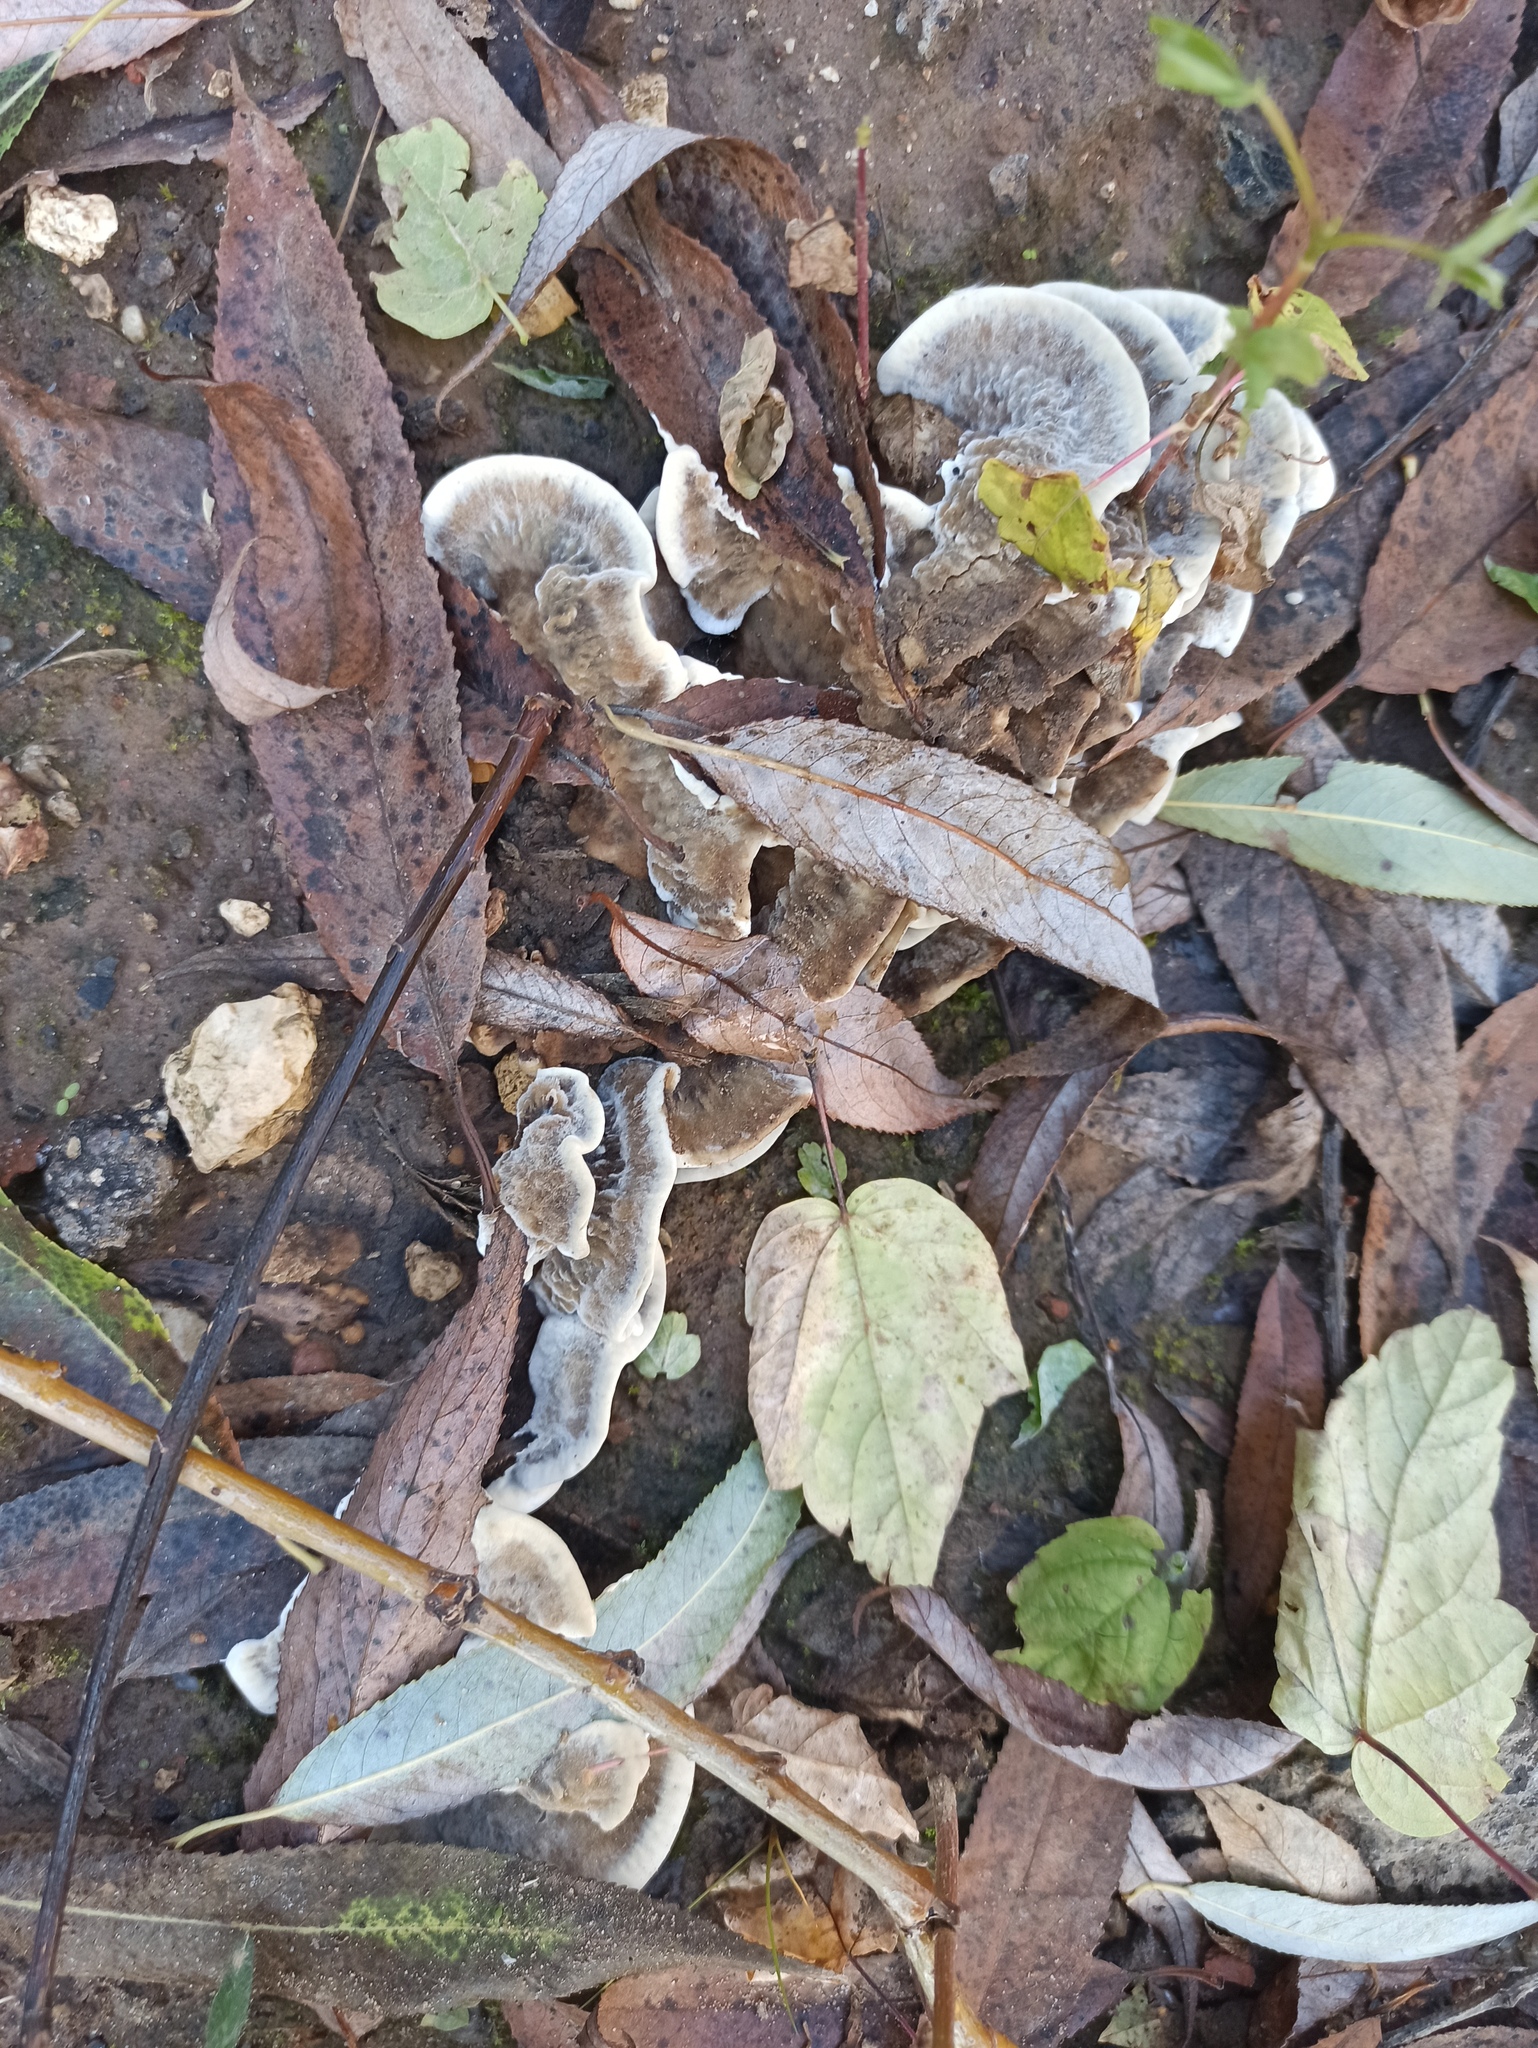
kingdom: Fungi
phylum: Basidiomycota
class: Agaricomycetes
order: Polyporales
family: Phanerochaetaceae
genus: Bjerkandera
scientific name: Bjerkandera adusta
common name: Smoky bracket
